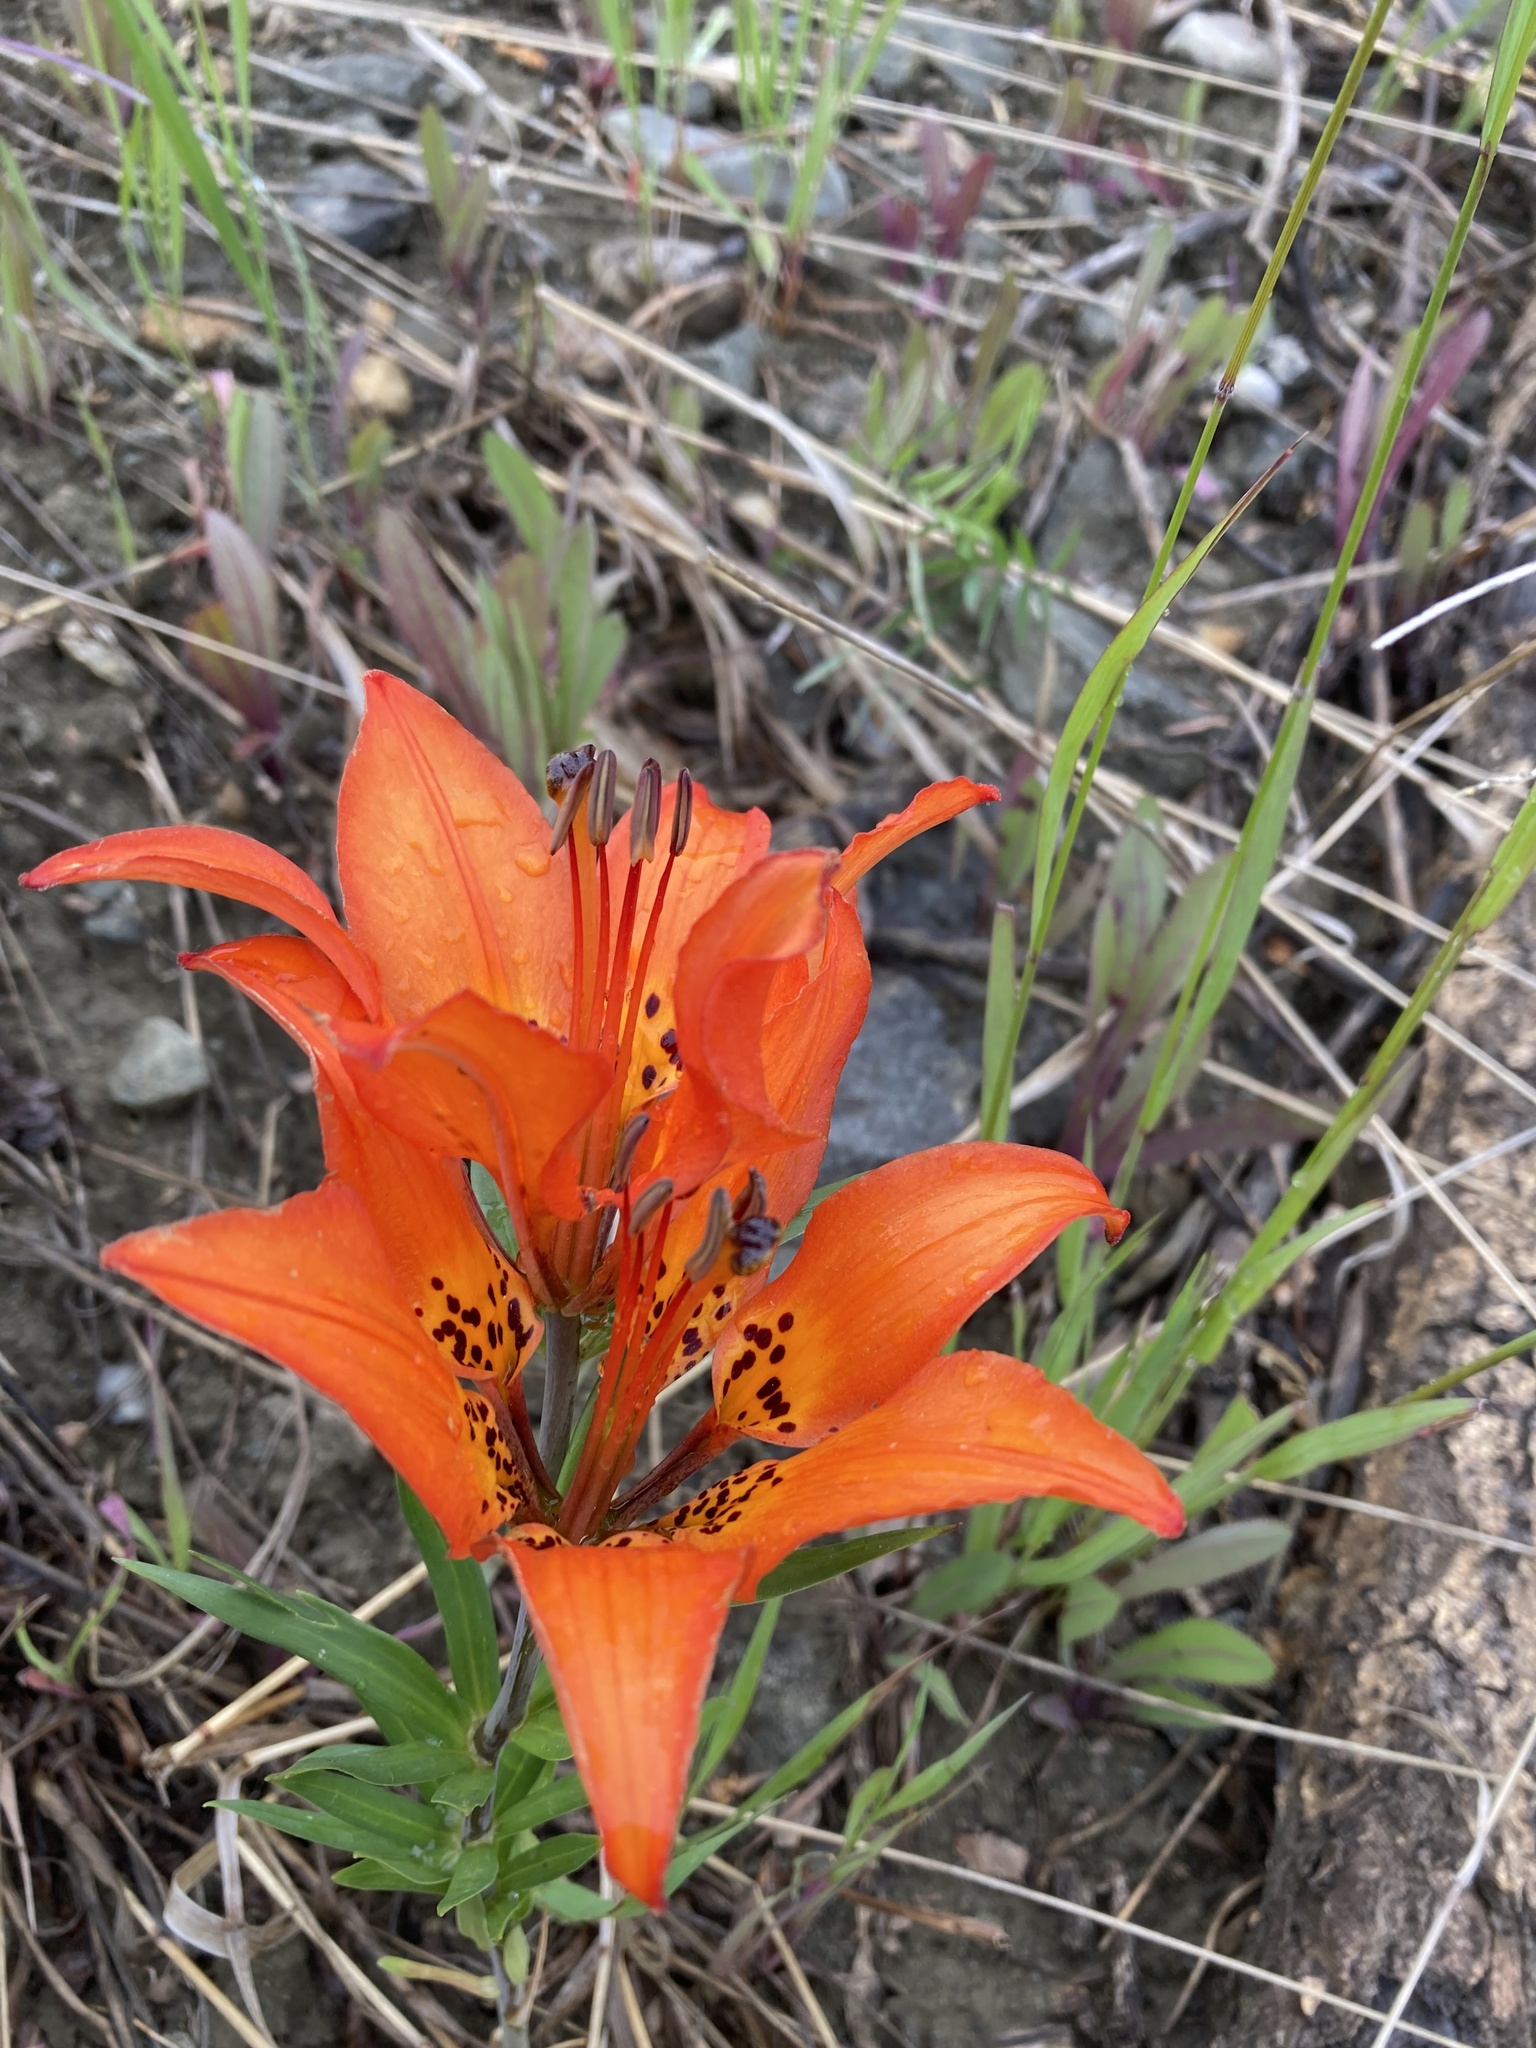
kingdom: Plantae
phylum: Tracheophyta
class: Liliopsida
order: Liliales
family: Liliaceae
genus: Lilium
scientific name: Lilium philadelphicum
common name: Red lily
